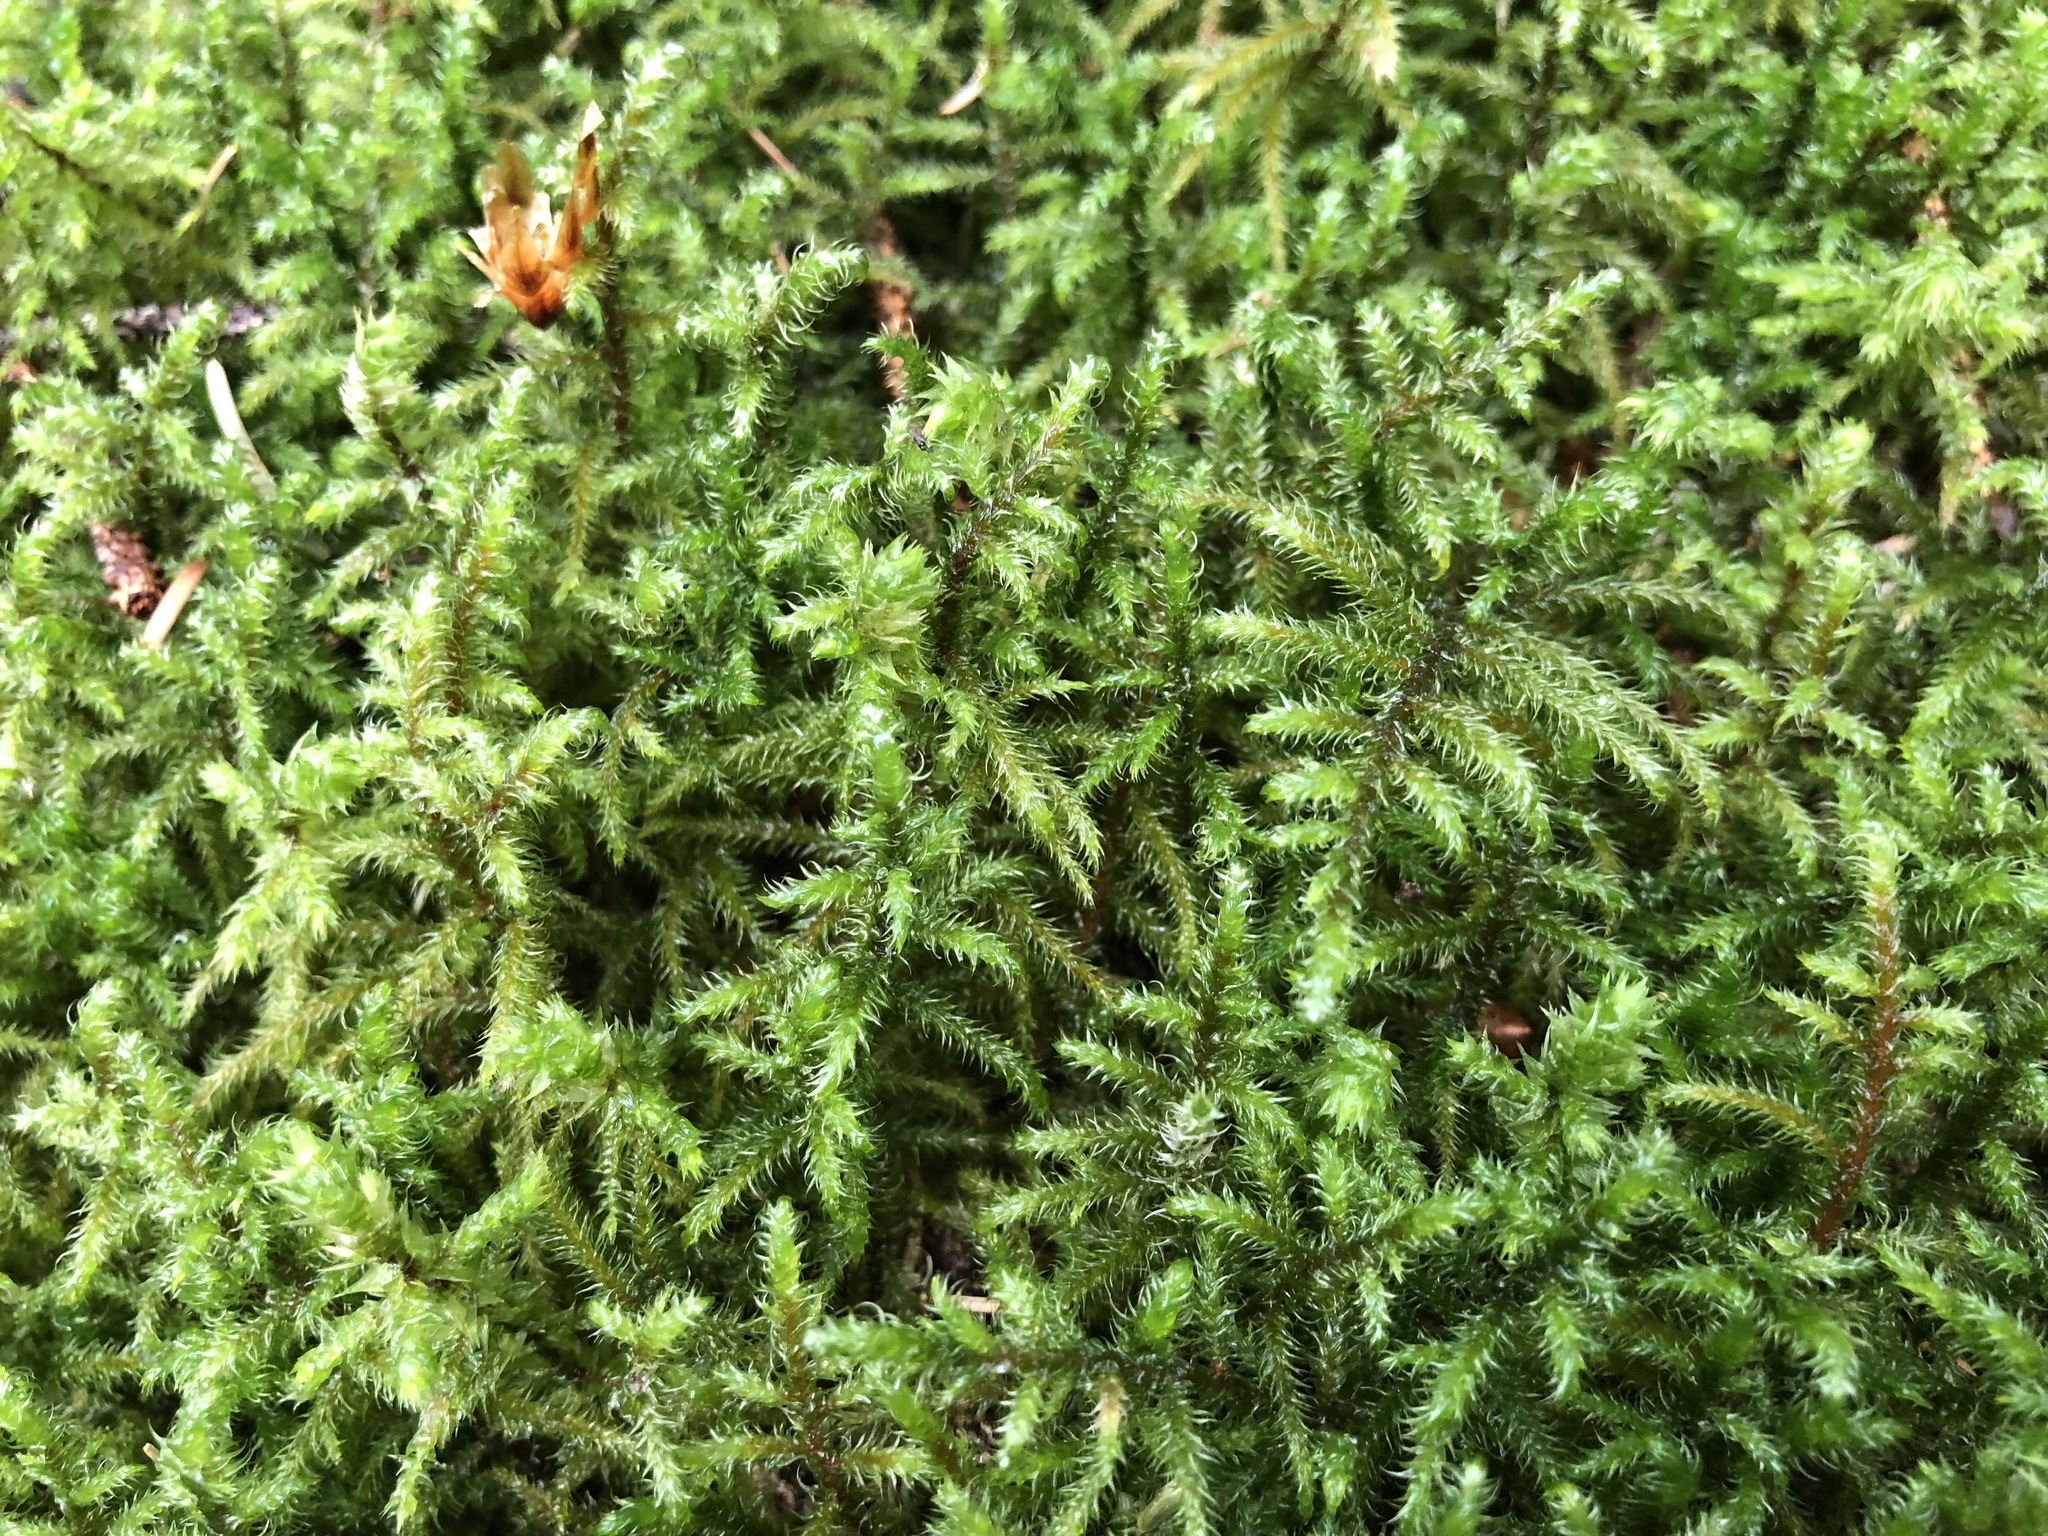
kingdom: Plantae
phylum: Bryophyta
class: Bryopsida
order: Hypnales
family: Hylocomiaceae
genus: Rhytidiadelphus
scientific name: Rhytidiadelphus loreus
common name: Lanky moss
